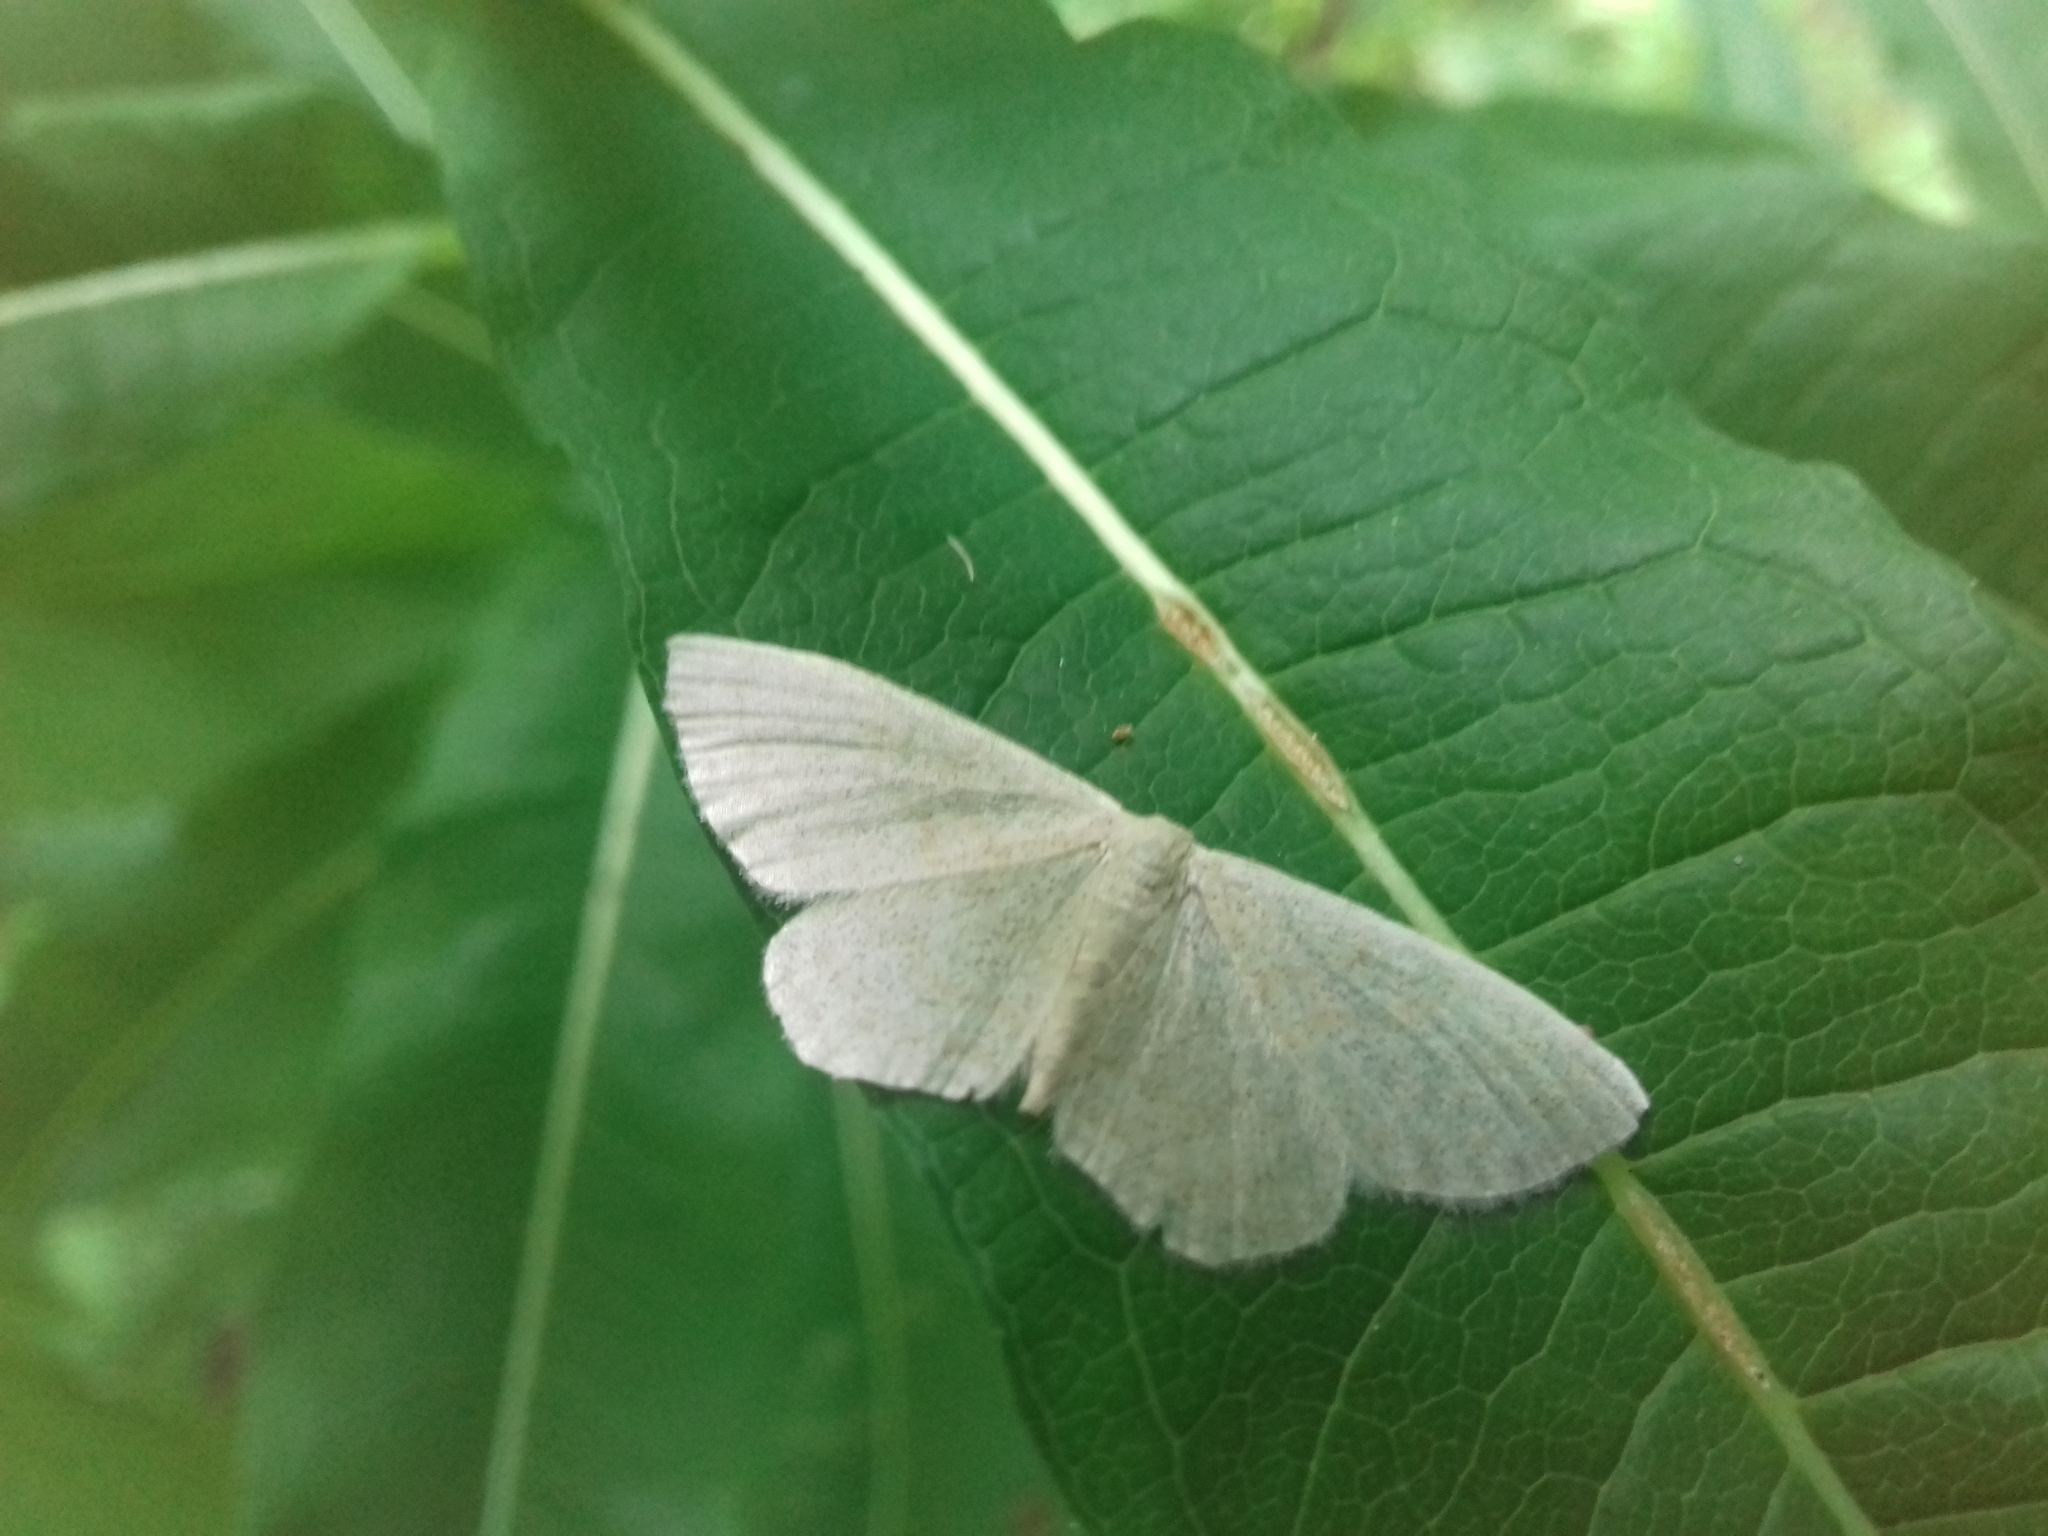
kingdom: Animalia
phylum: Arthropoda
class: Insecta
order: Lepidoptera
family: Geometridae
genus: Scopula
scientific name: Scopula floslactata
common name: Cream wave
